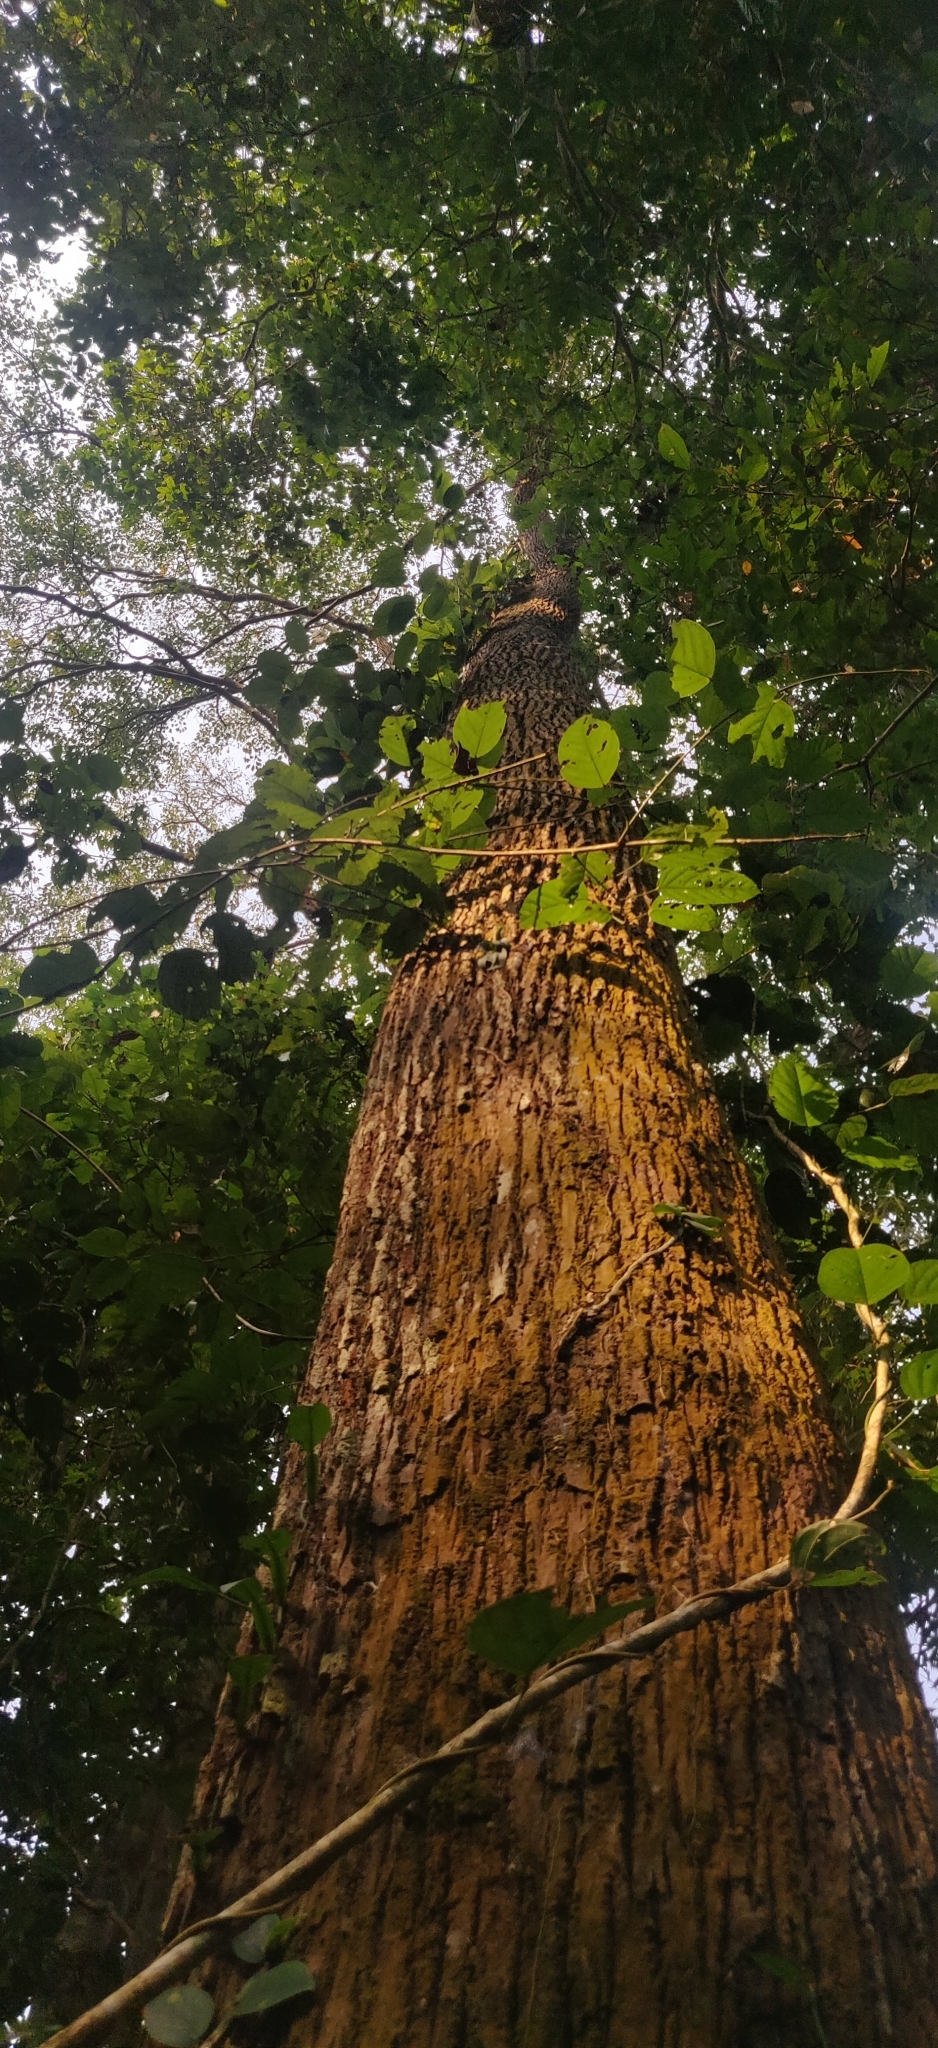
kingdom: Plantae
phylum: Tracheophyta
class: Magnoliopsida
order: Malpighiales
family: Euphorbiaceae
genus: Balakata
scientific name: Balakata baccata
